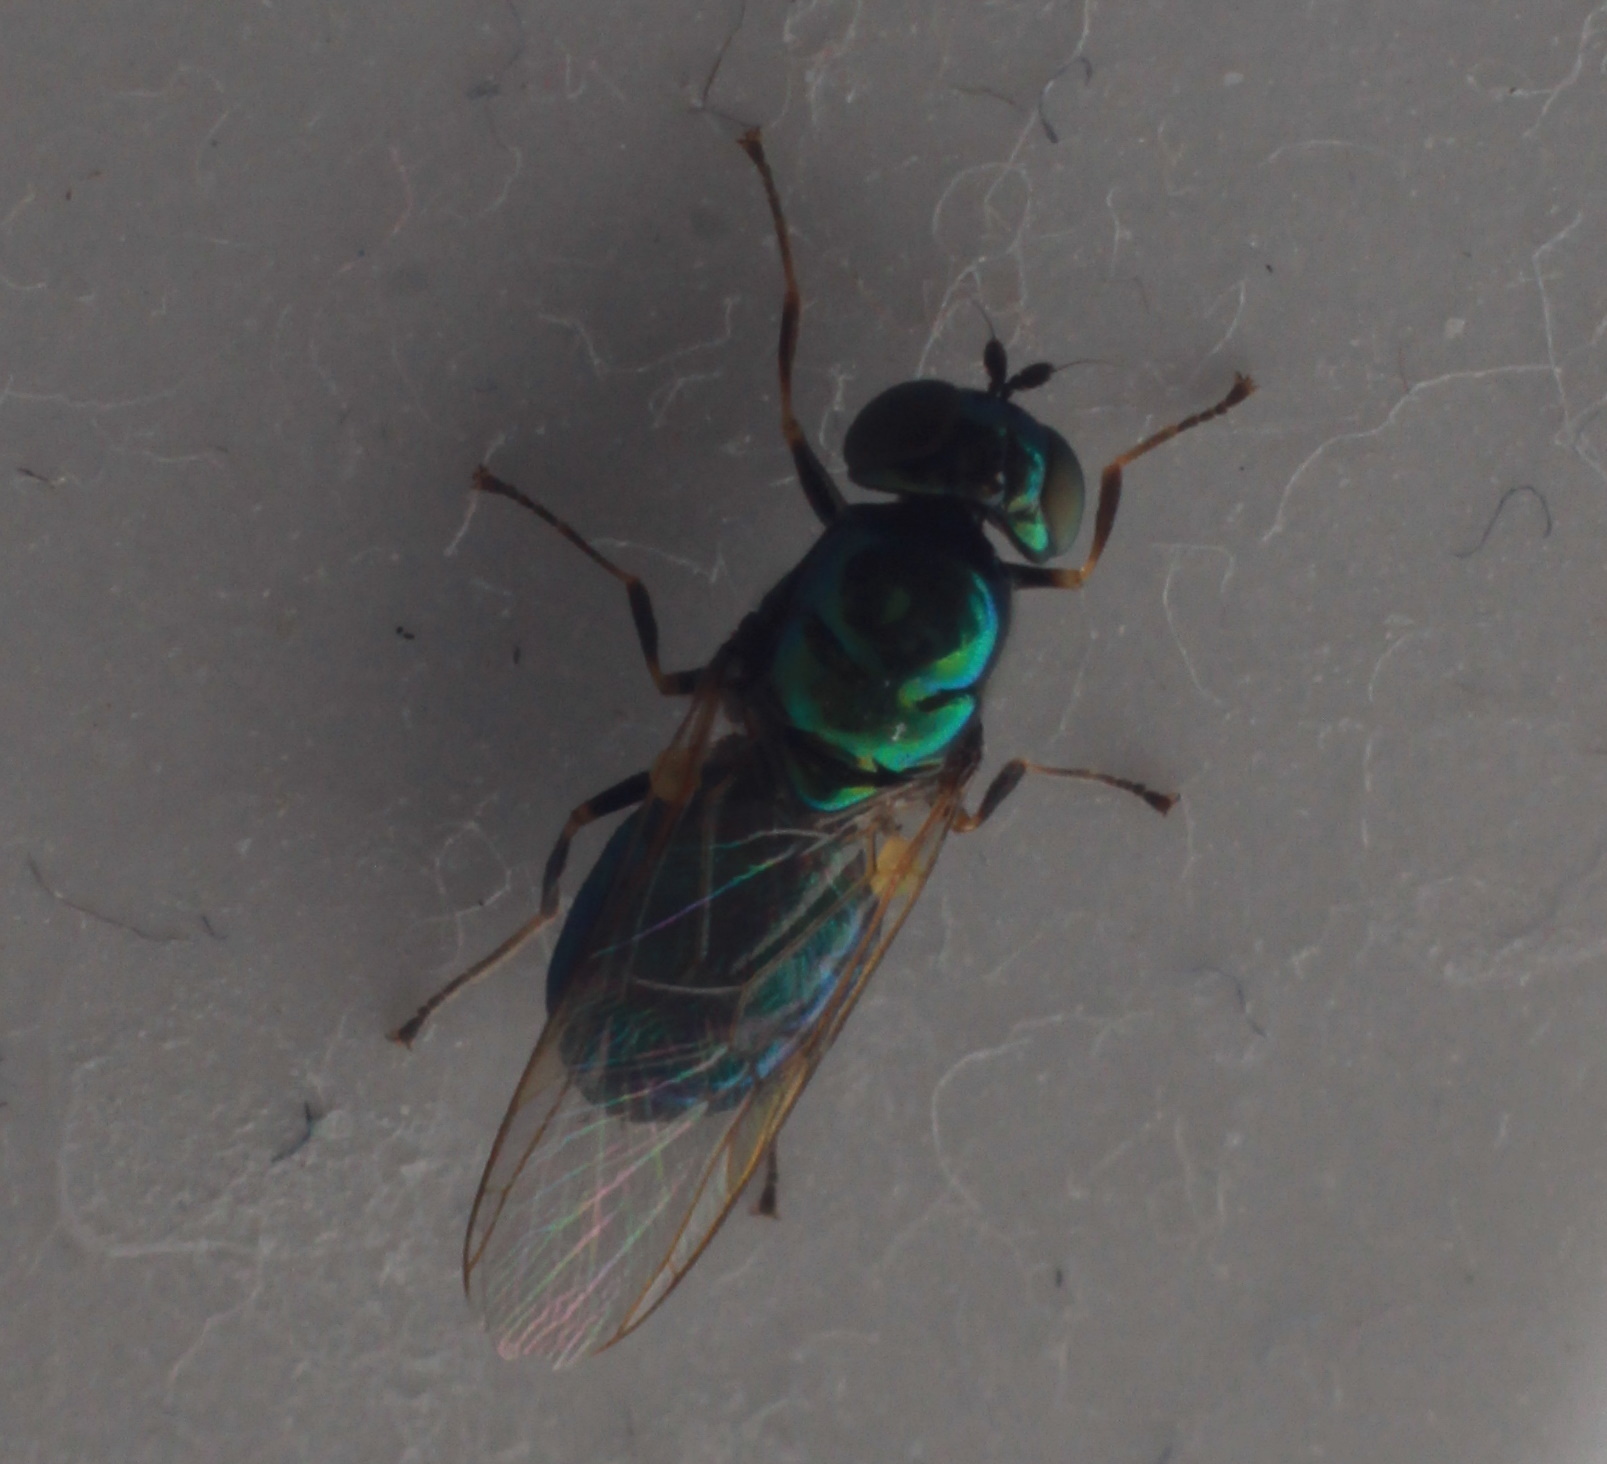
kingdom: Animalia
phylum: Arthropoda
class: Insecta
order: Diptera
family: Stratiomyidae
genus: Microchrysa
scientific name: Microchrysa polita
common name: Black-horned gem
